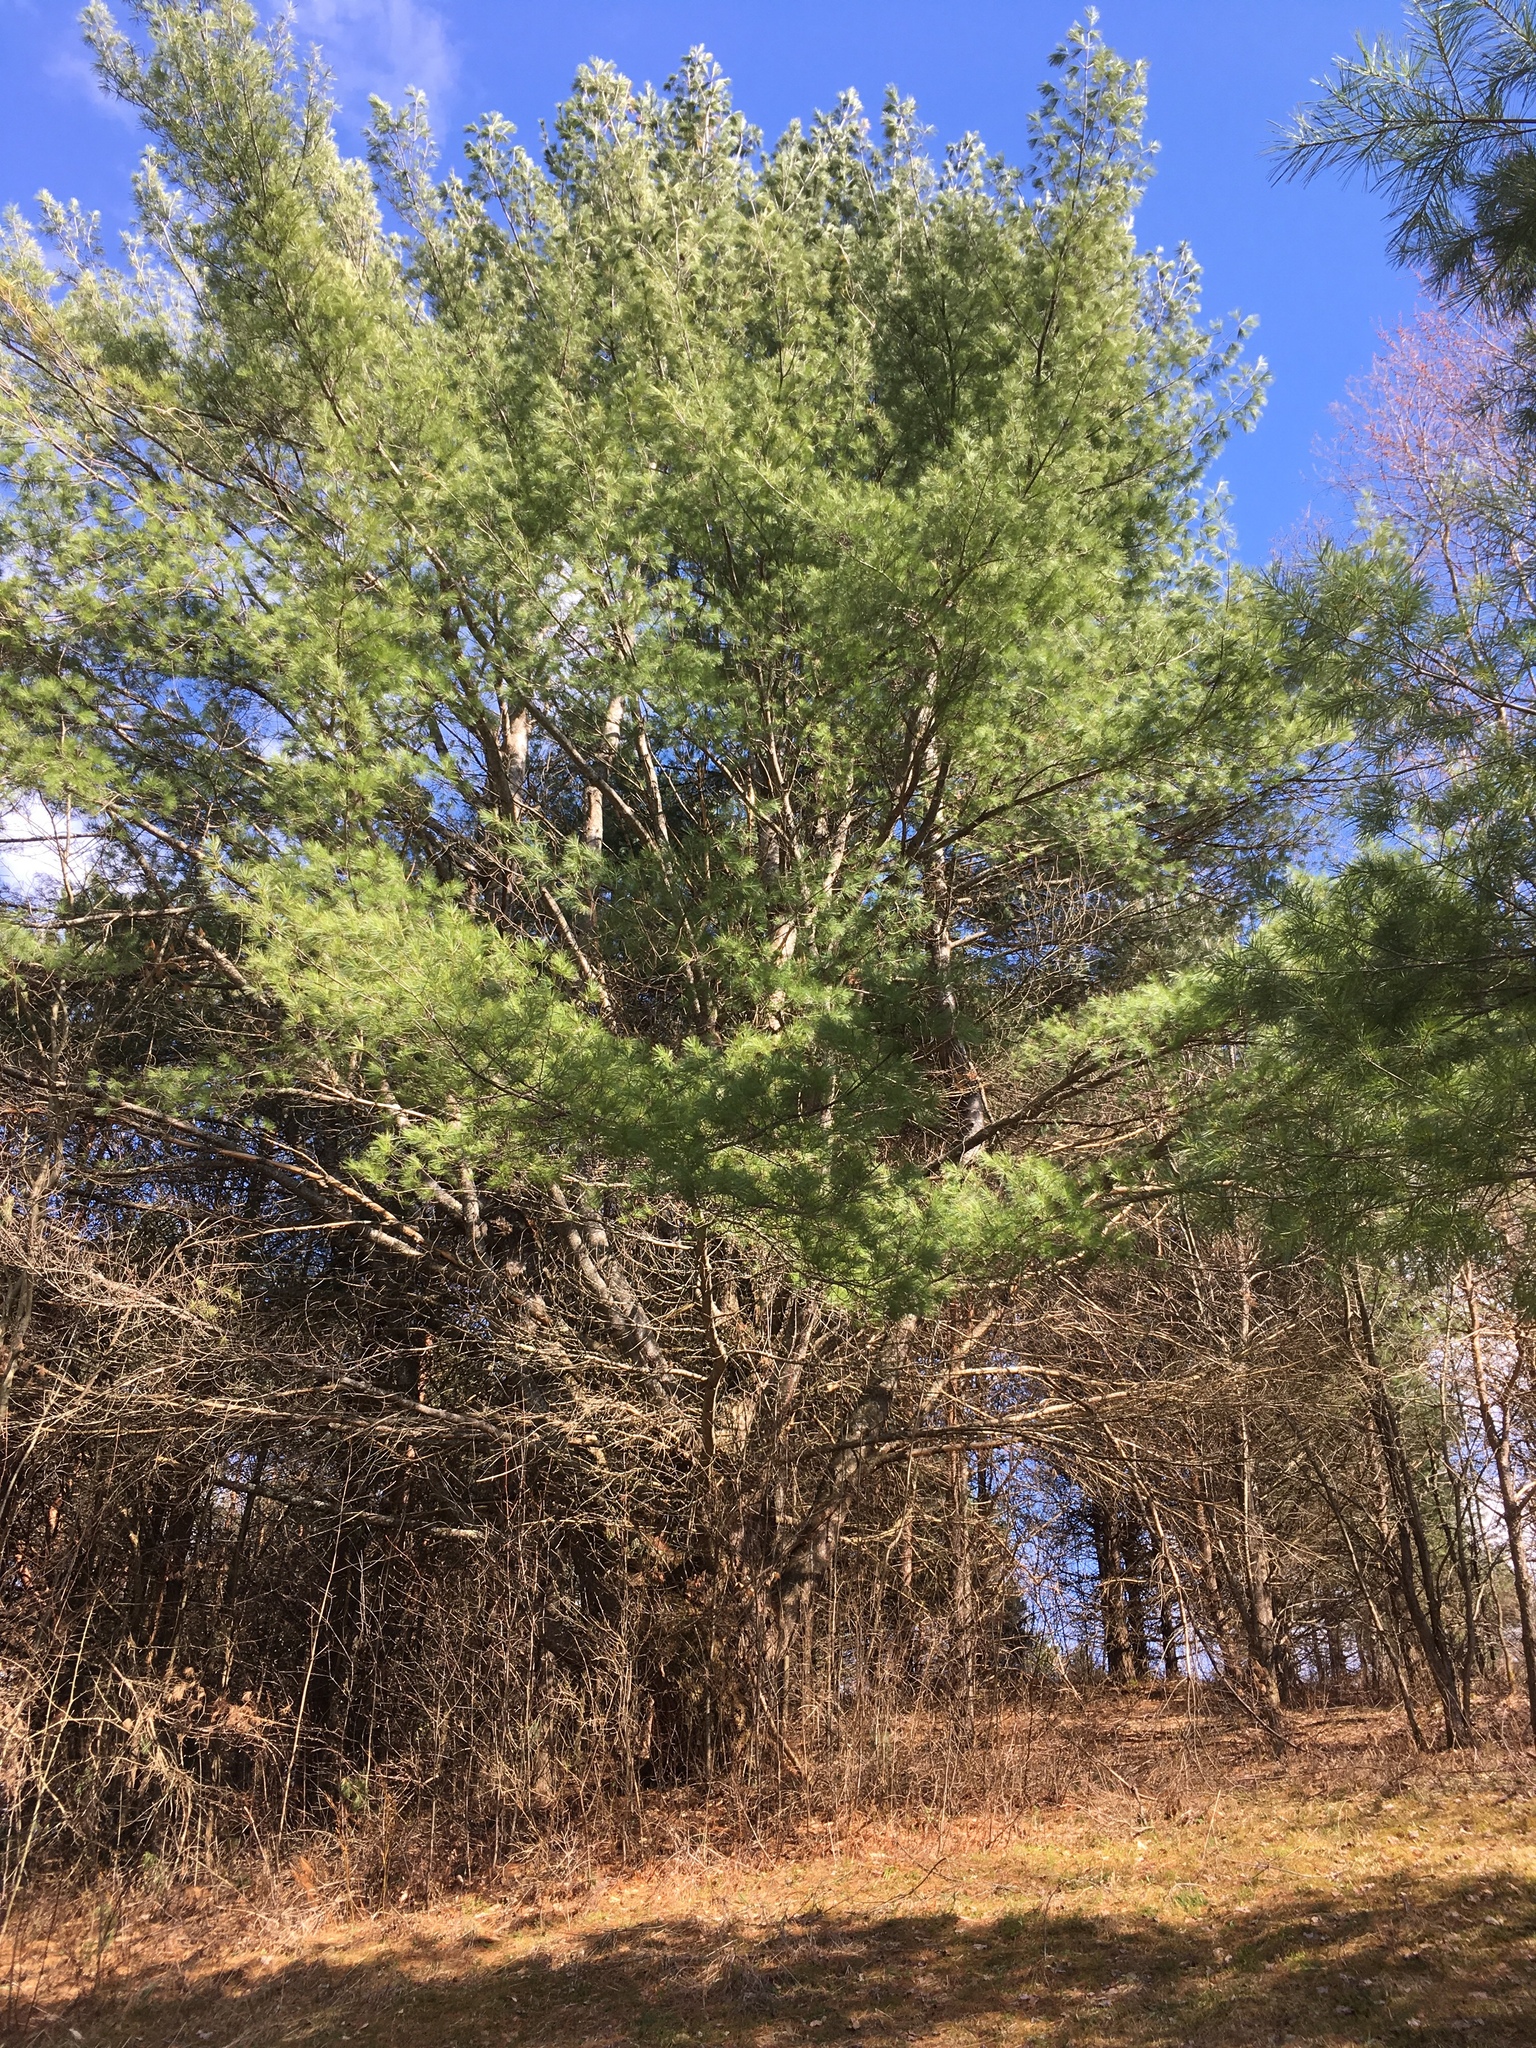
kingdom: Plantae
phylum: Tracheophyta
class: Pinopsida
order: Pinales
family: Pinaceae
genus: Pinus
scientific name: Pinus strobus
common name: Weymouth pine
